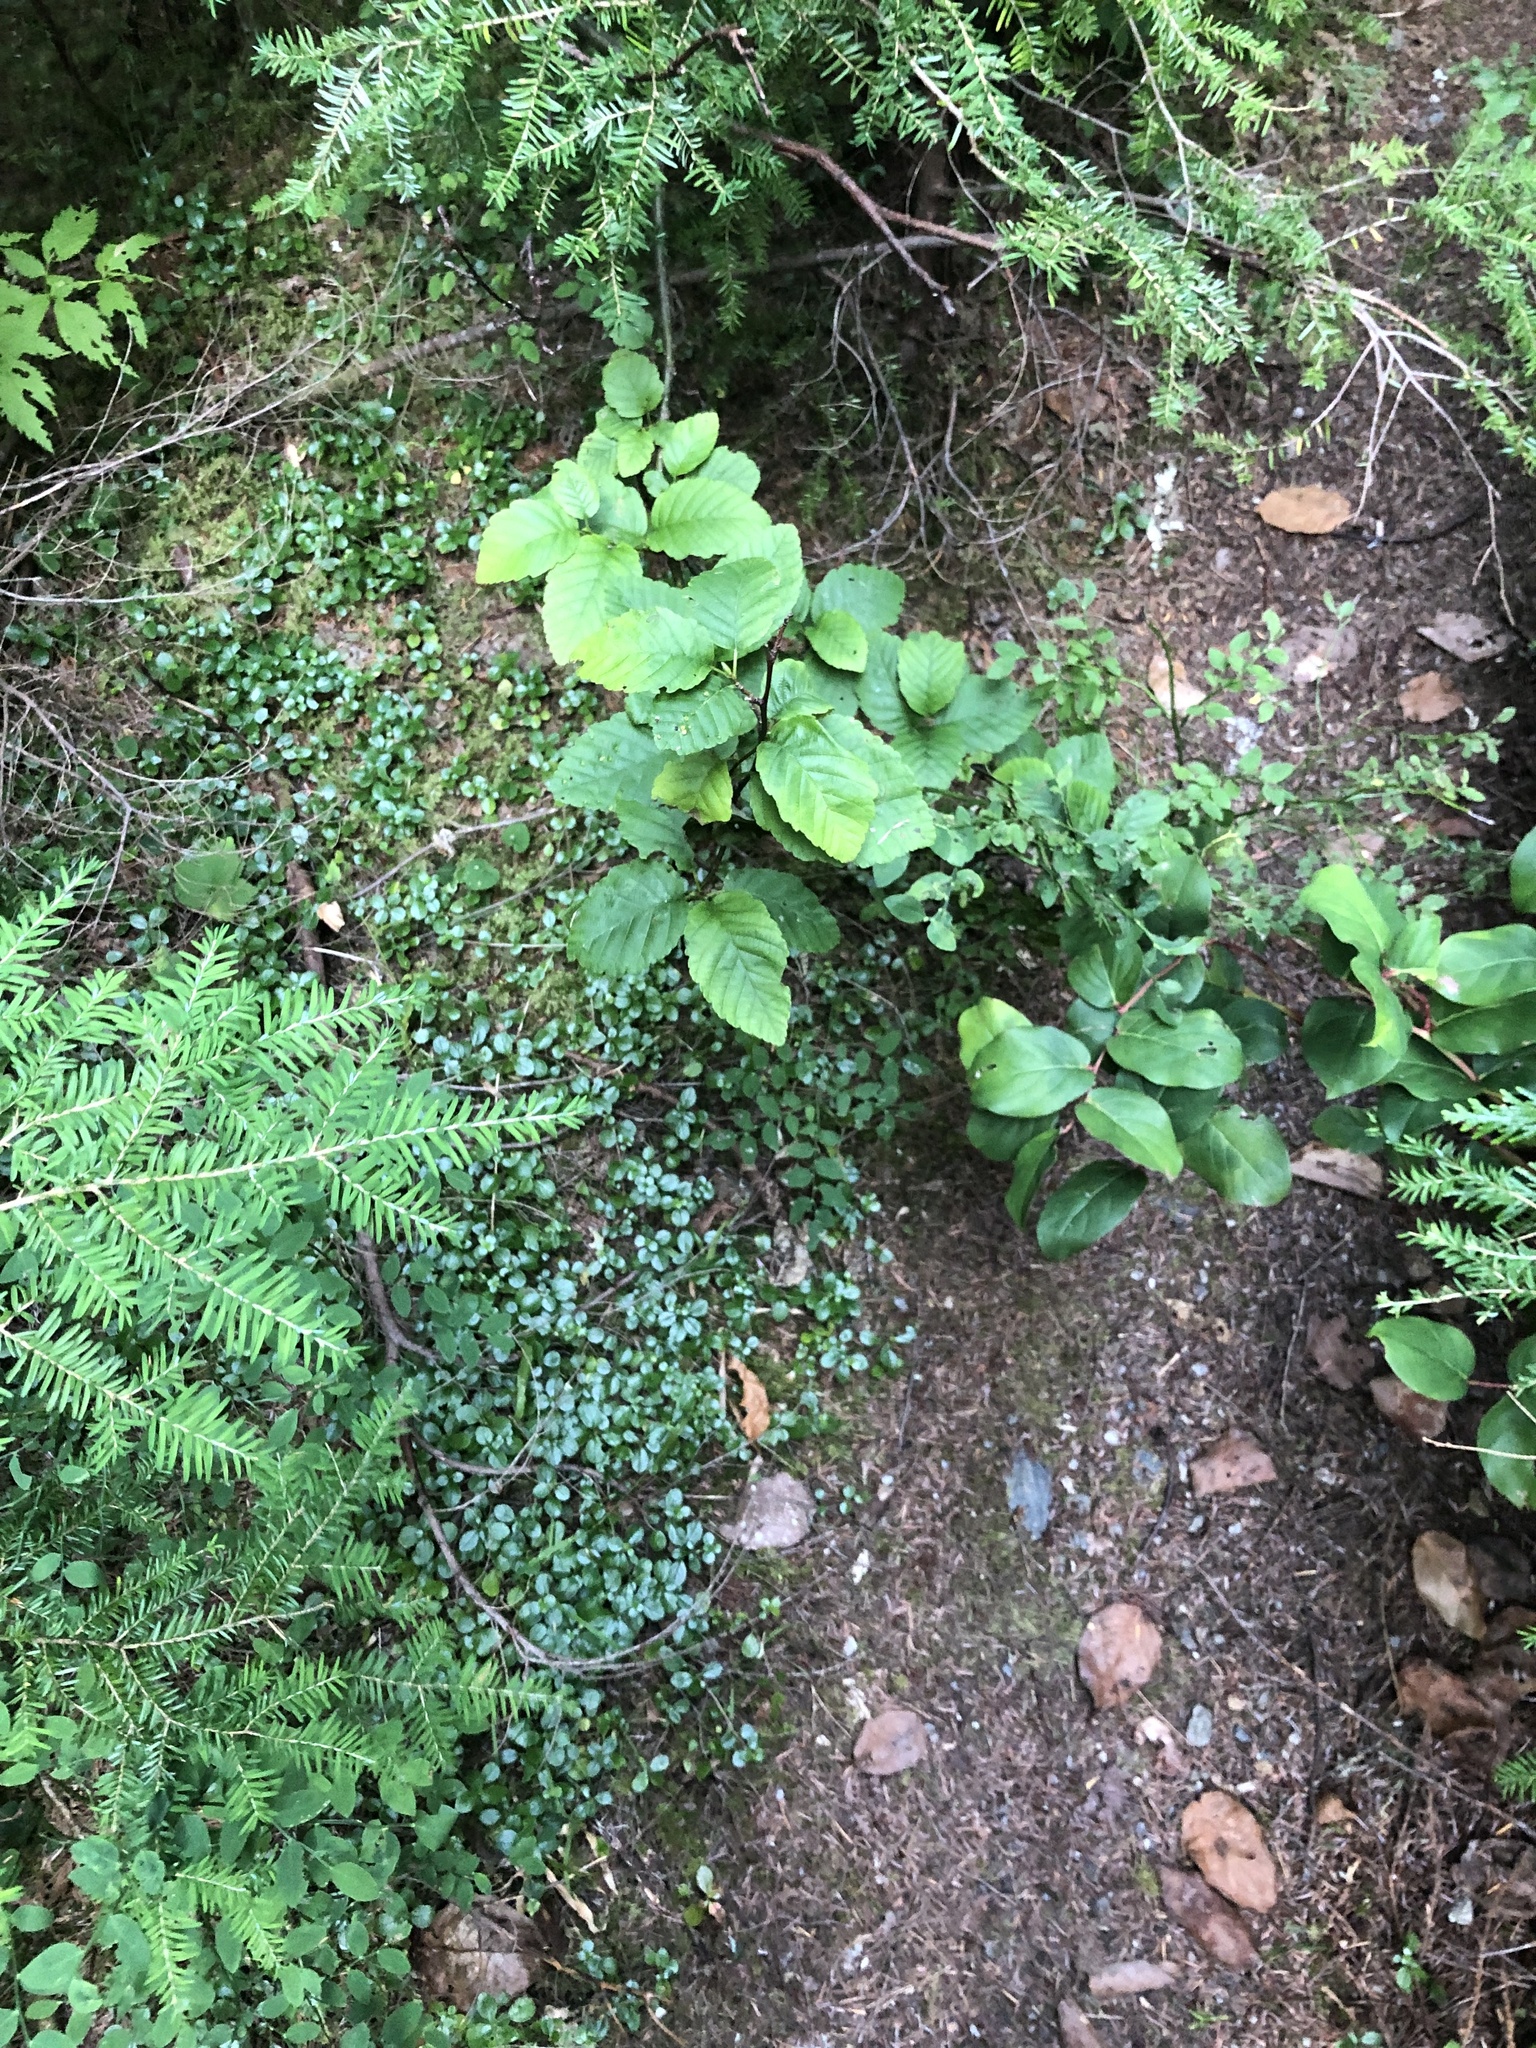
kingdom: Plantae
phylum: Tracheophyta
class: Pinopsida
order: Pinales
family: Pinaceae
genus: Tsuga
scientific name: Tsuga heterophylla
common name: Western hemlock
